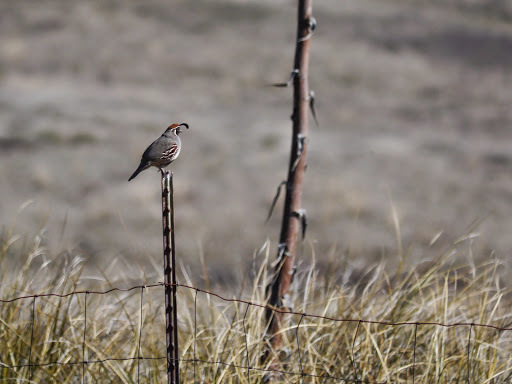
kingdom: Animalia
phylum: Chordata
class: Aves
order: Galliformes
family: Odontophoridae
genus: Callipepla
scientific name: Callipepla gambelii
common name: Gambel's quail
